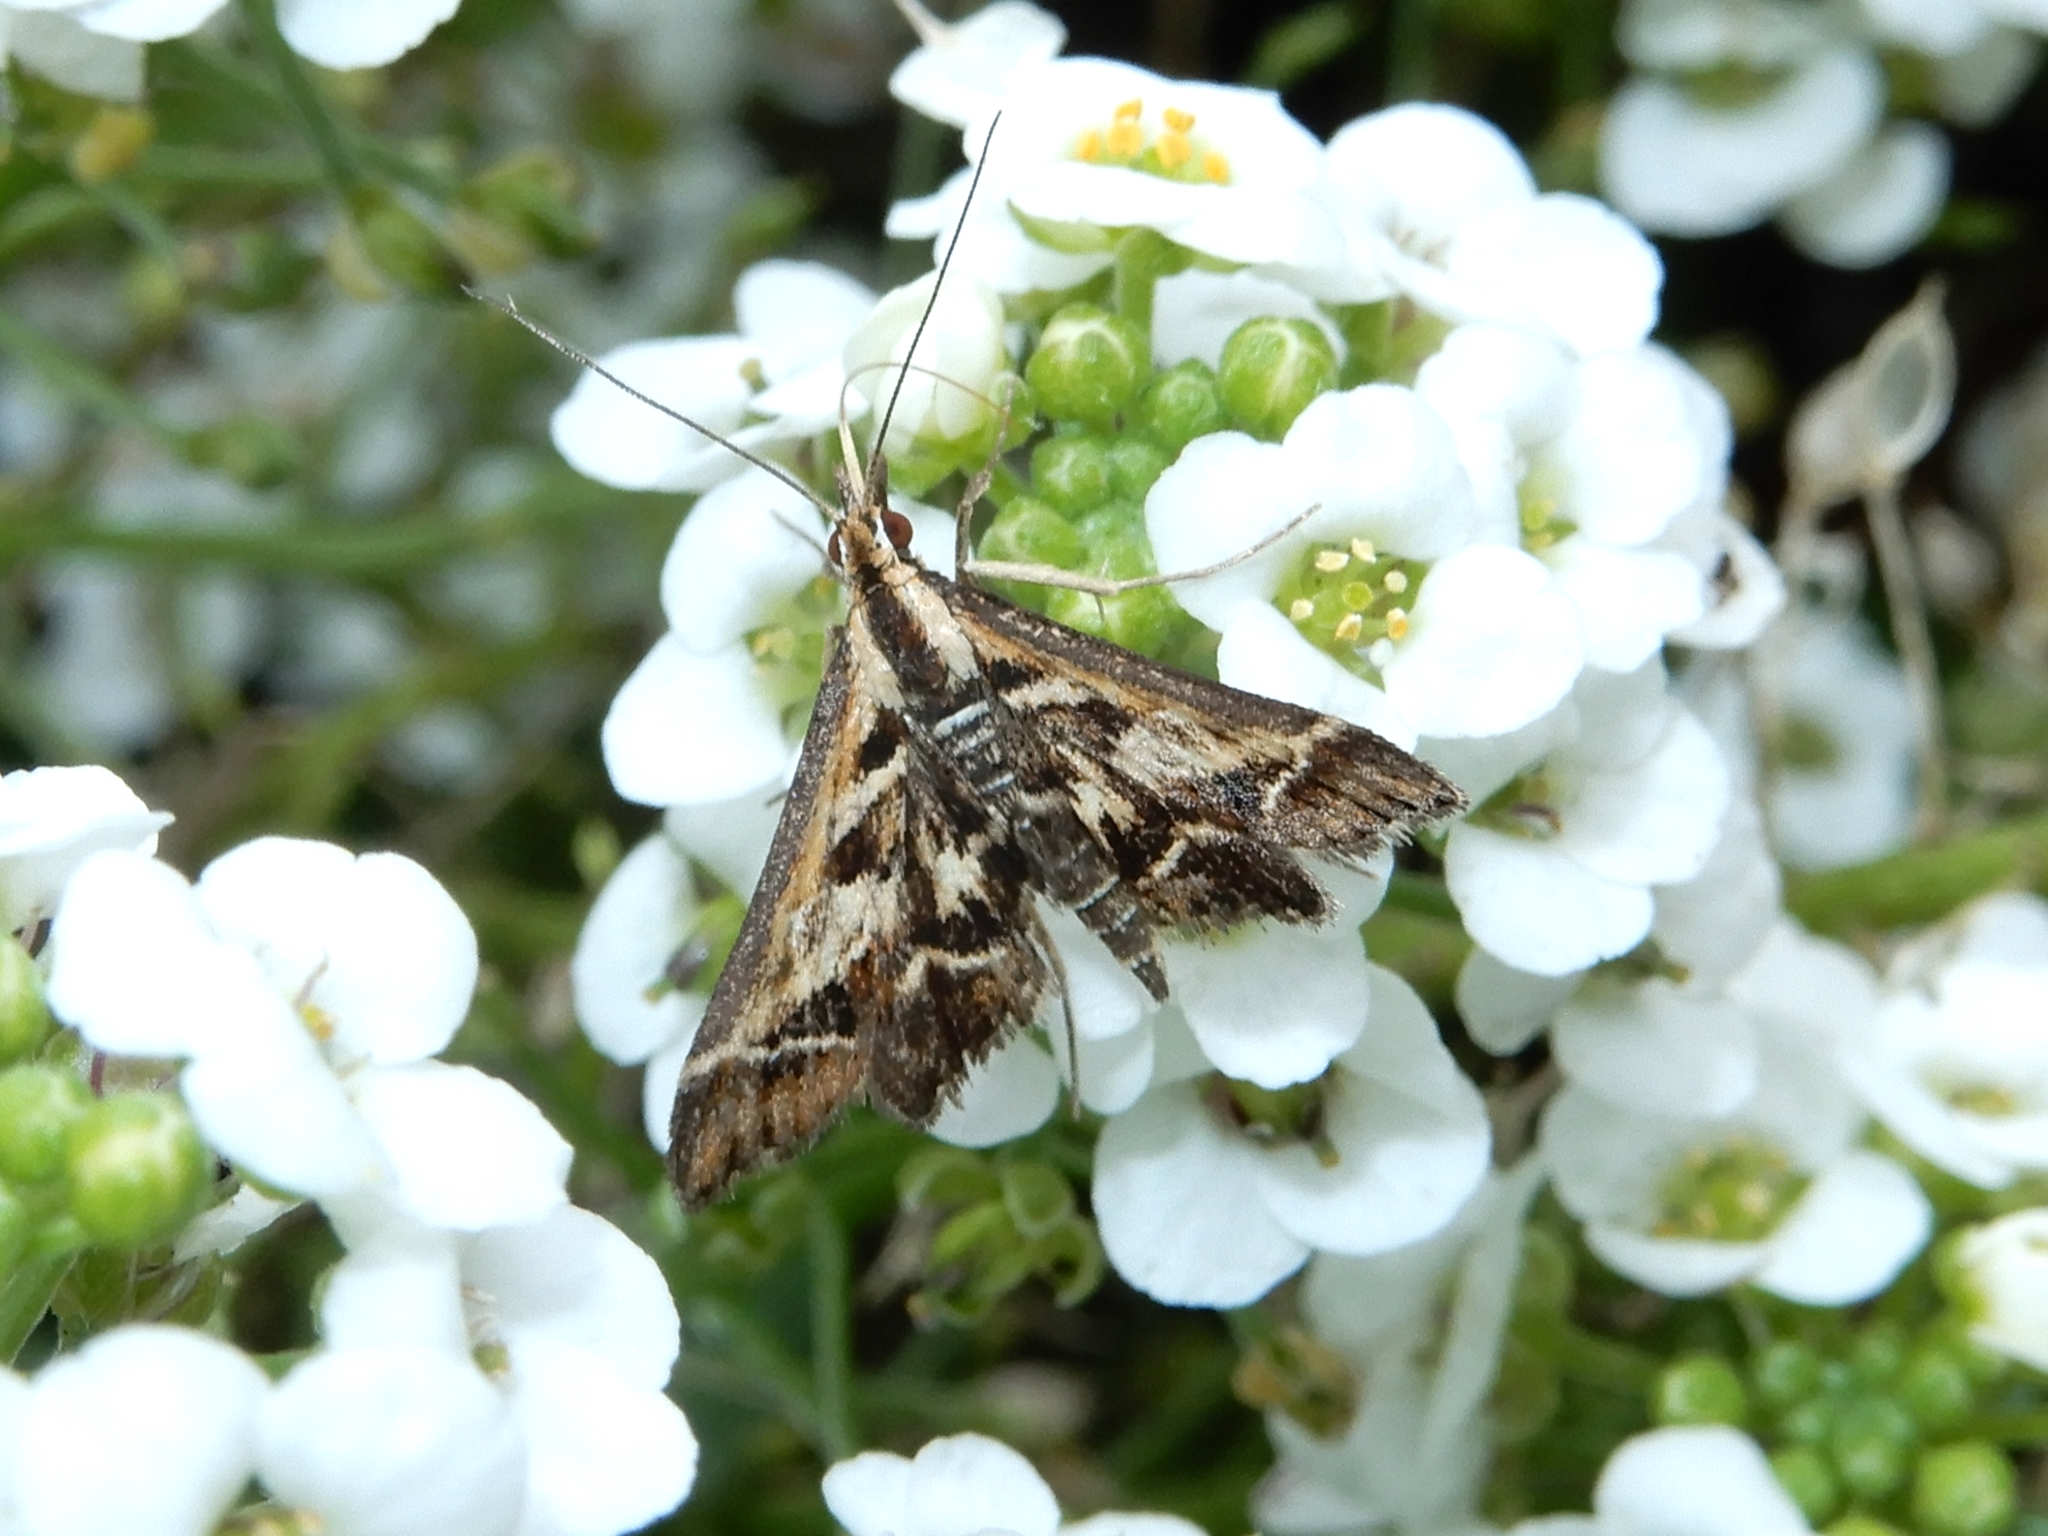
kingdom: Animalia
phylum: Arthropoda
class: Insecta
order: Lepidoptera
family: Crambidae
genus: Diasemia
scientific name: Diasemia grammalis
